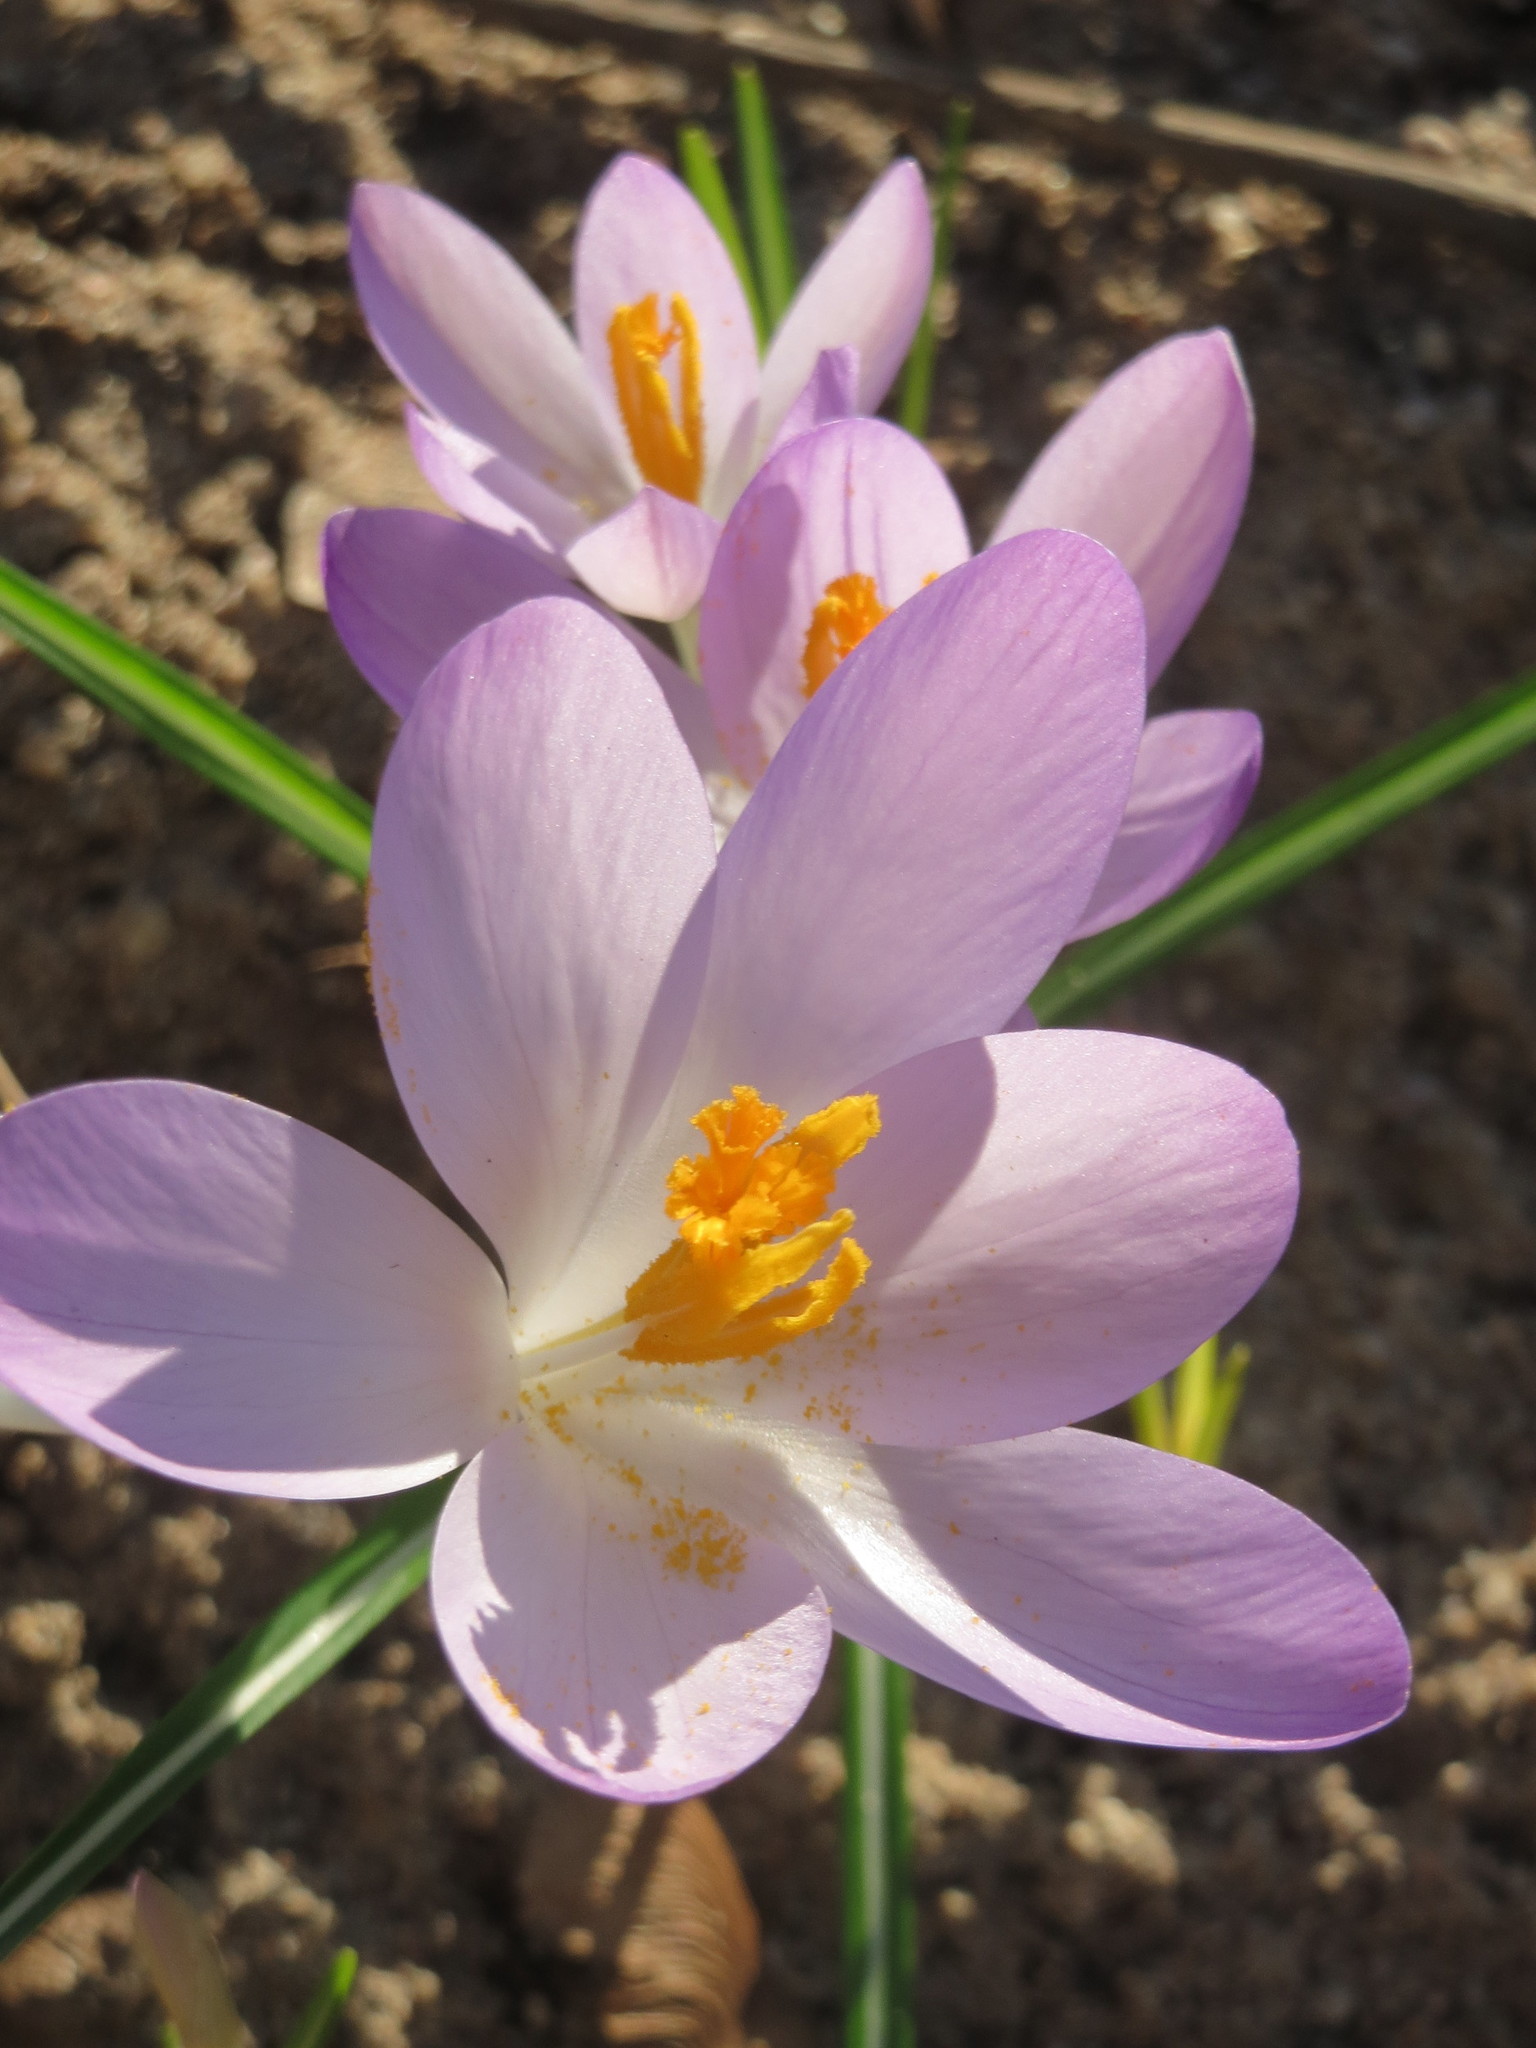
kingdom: Plantae
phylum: Tracheophyta
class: Liliopsida
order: Asparagales
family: Iridaceae
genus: Crocus
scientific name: Crocus tommasinianus
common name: Early crocus
